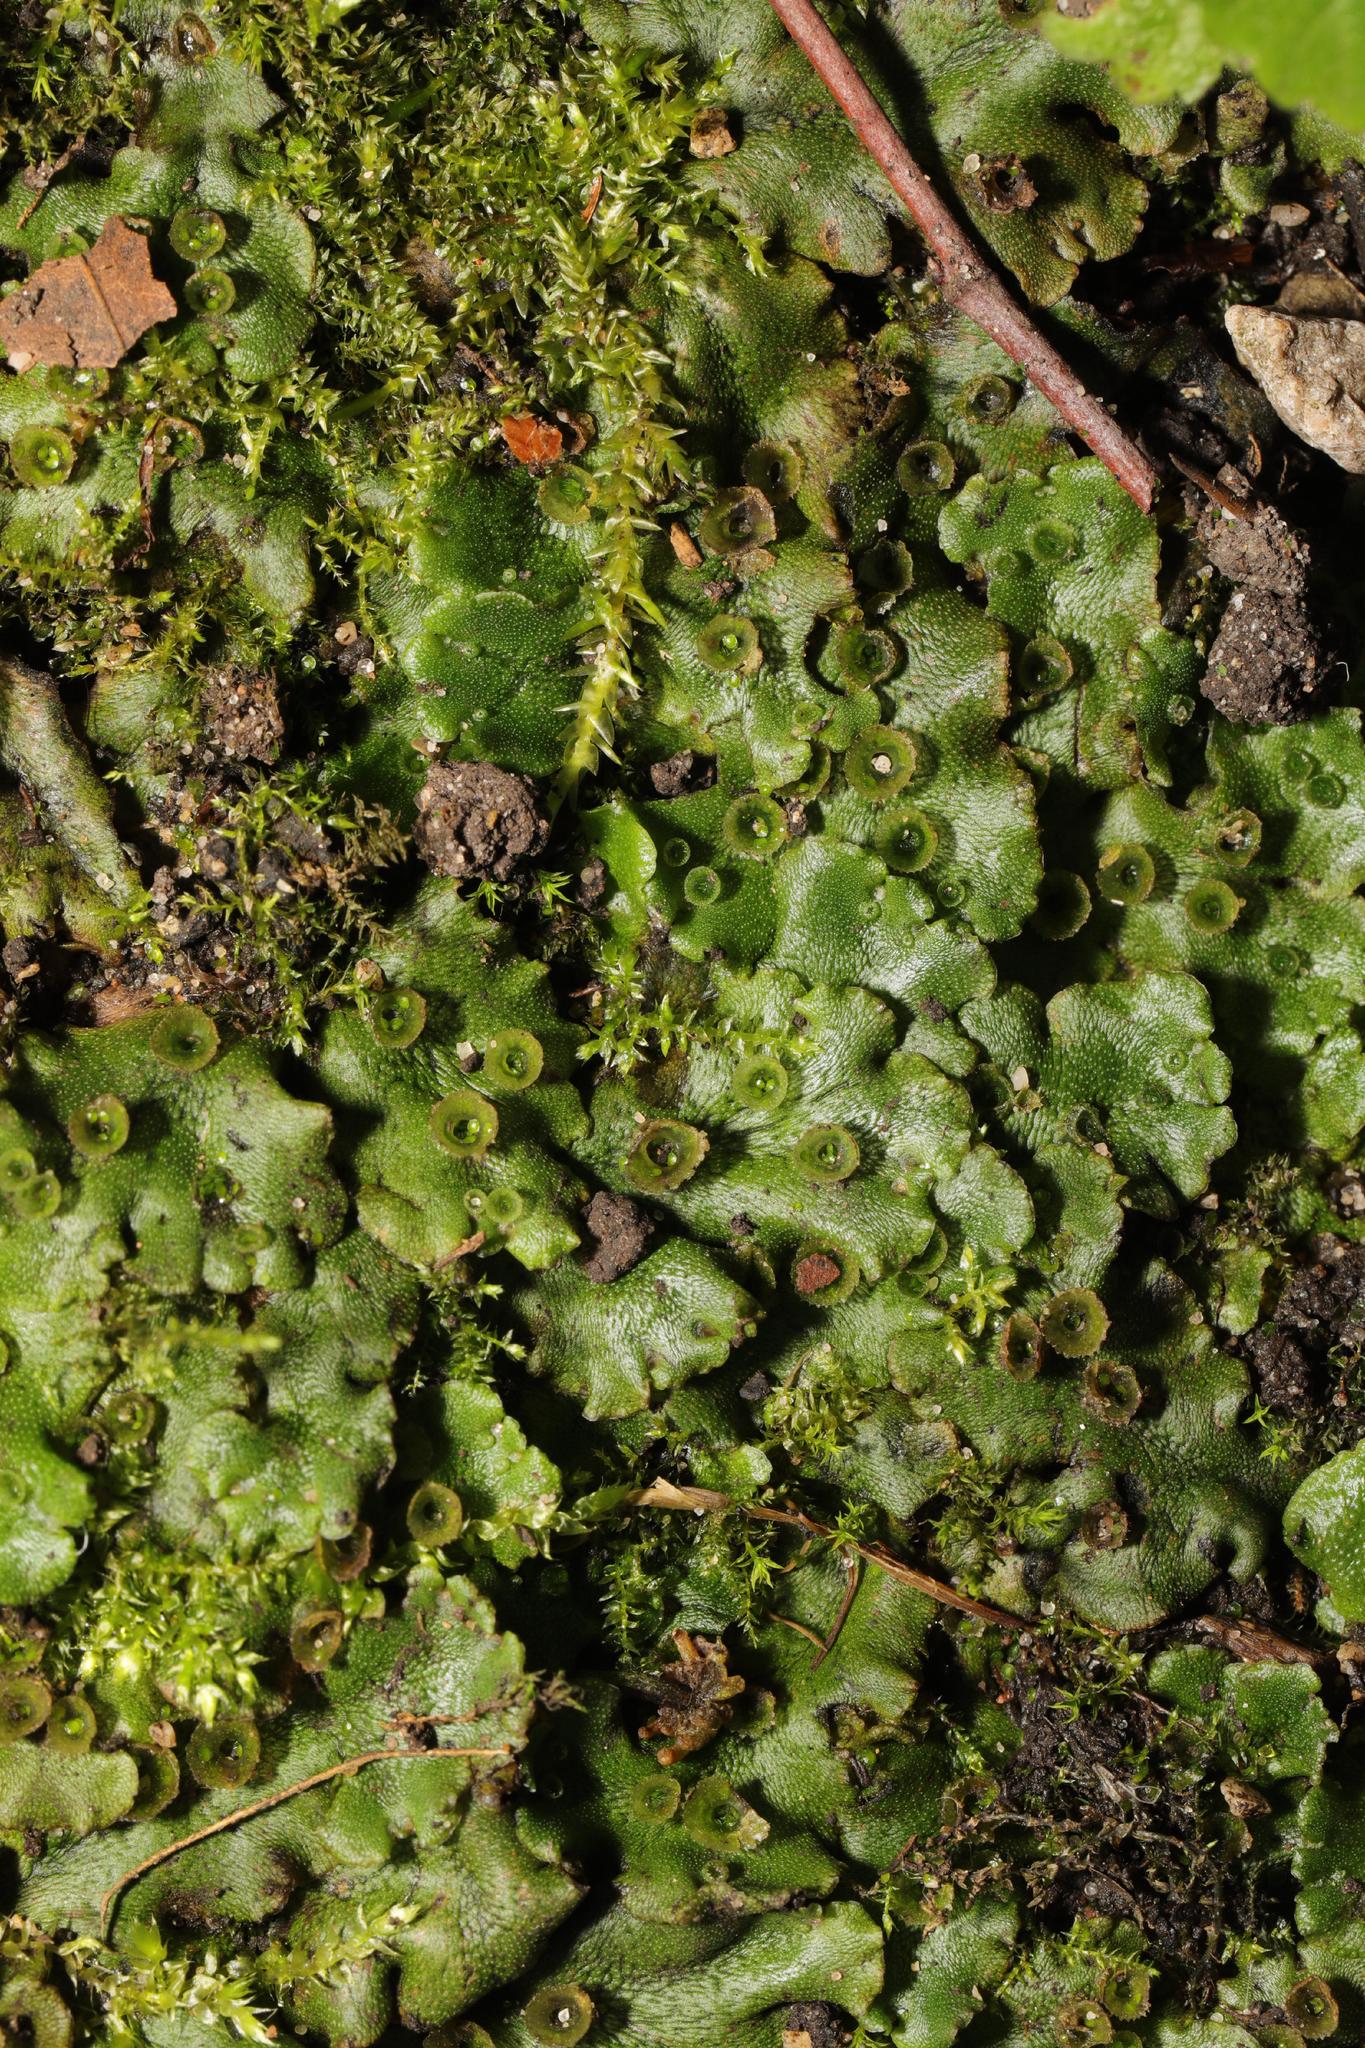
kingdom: Plantae
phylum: Marchantiophyta
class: Marchantiopsida
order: Marchantiales
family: Marchantiaceae
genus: Marchantia
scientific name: Marchantia polymorpha
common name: Common liverwort
